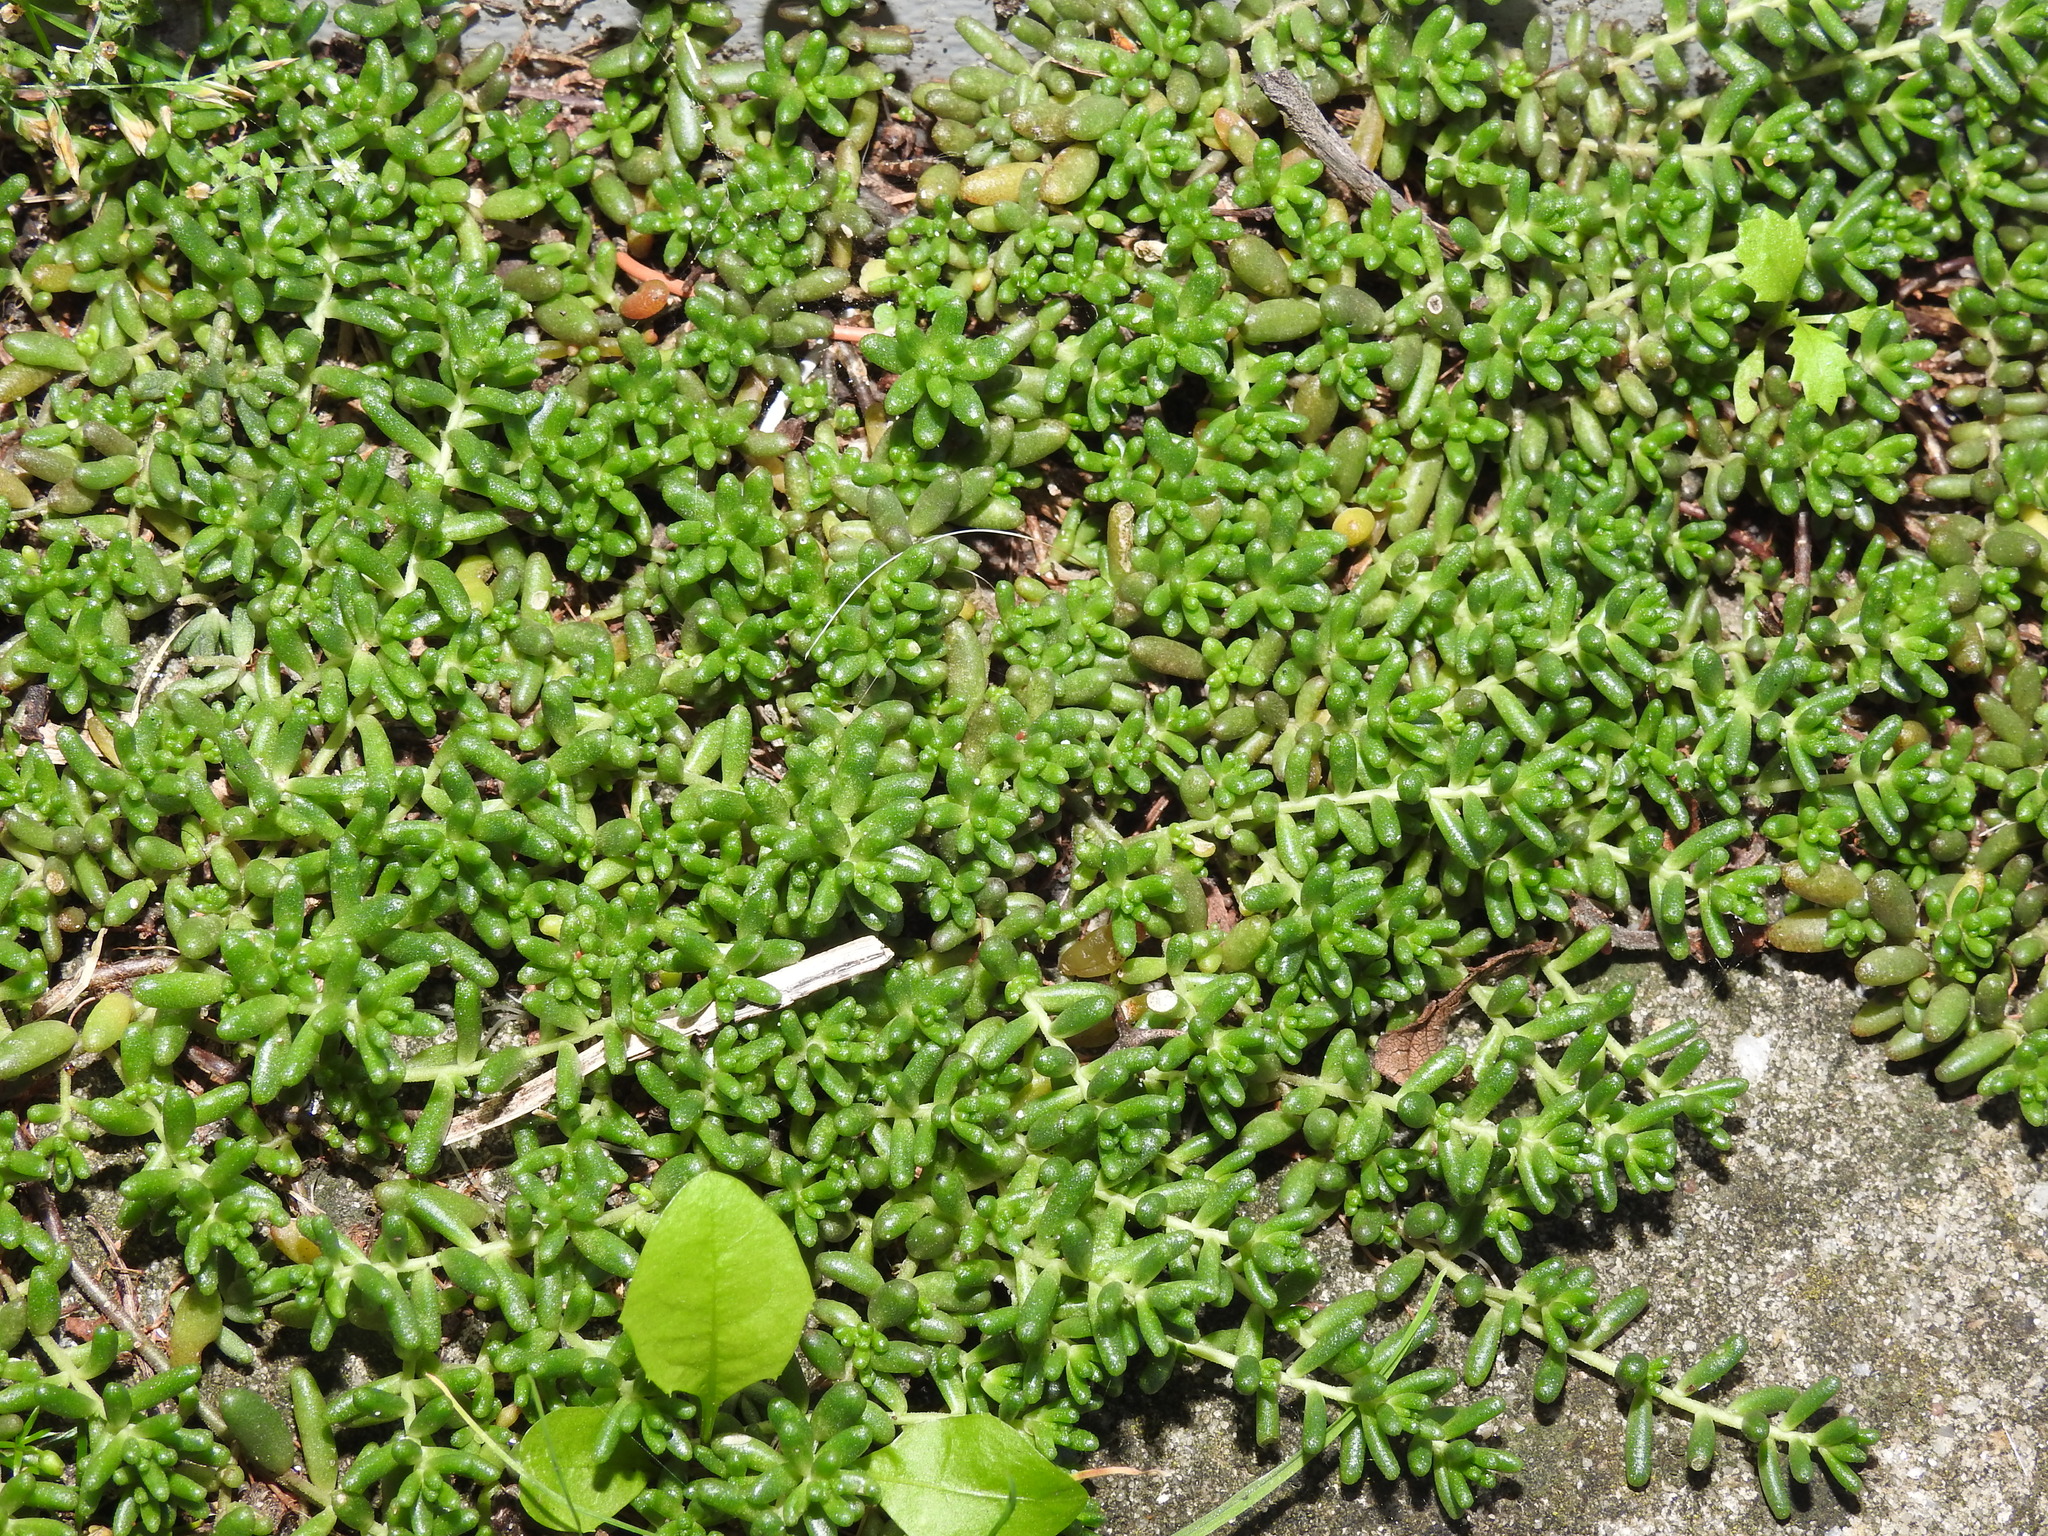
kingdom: Plantae
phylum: Tracheophyta
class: Magnoliopsida
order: Saxifragales
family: Crassulaceae
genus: Sedum
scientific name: Sedum album
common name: White stonecrop
